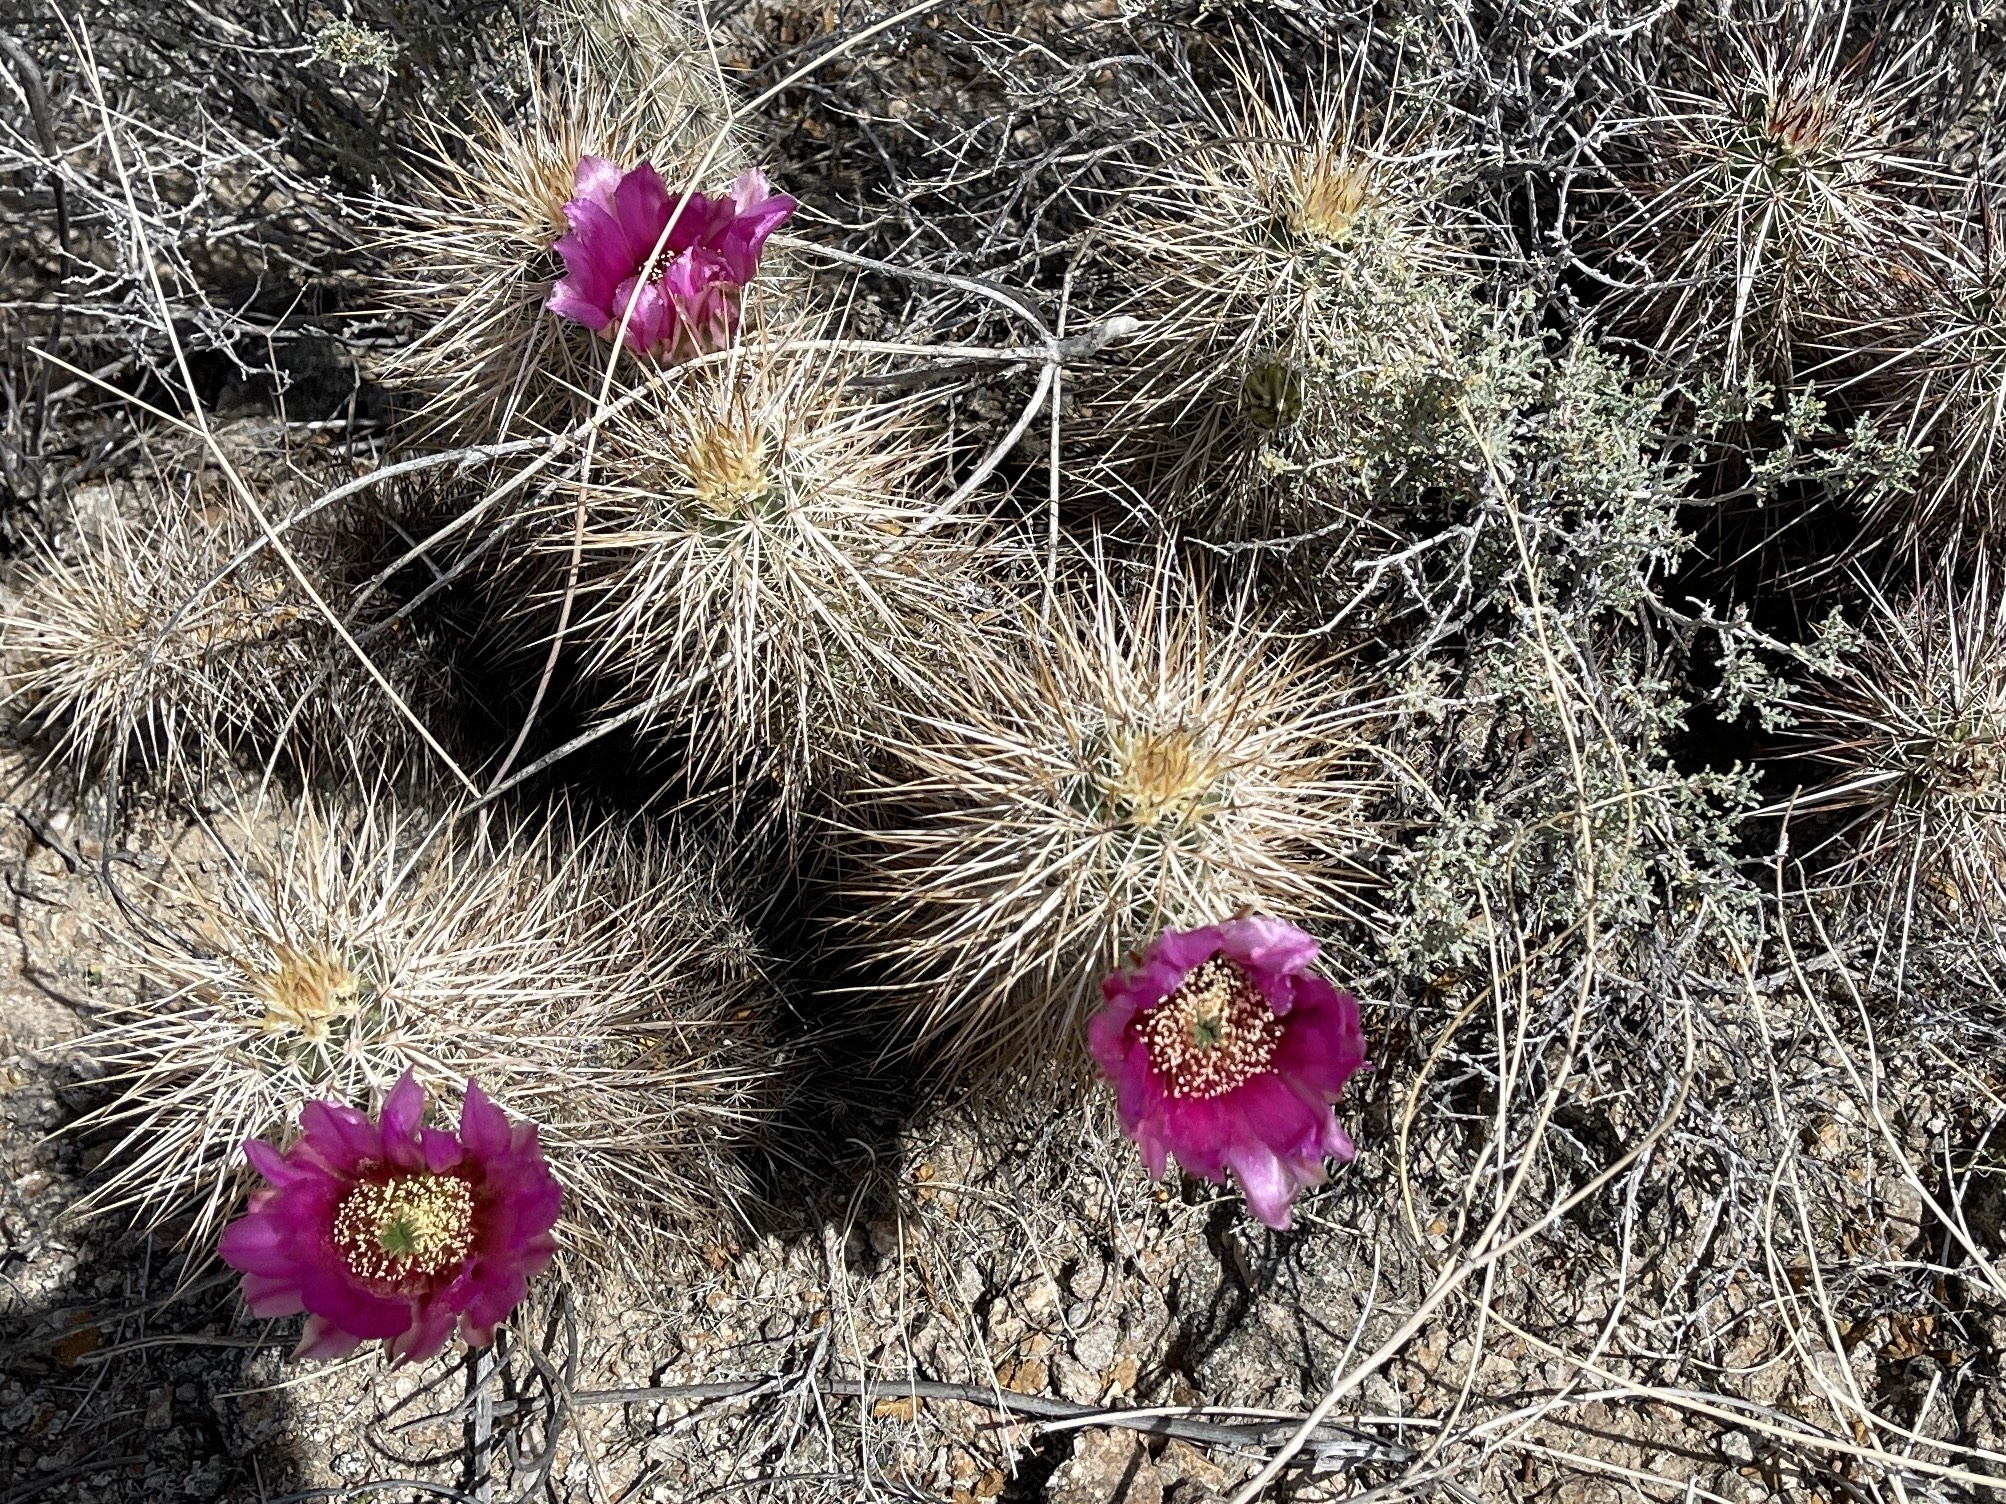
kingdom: Plantae
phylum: Tracheophyta
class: Magnoliopsida
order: Caryophyllales
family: Cactaceae
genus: Echinocereus
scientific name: Echinocereus engelmannii
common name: Engelmann's hedgehog cactus
